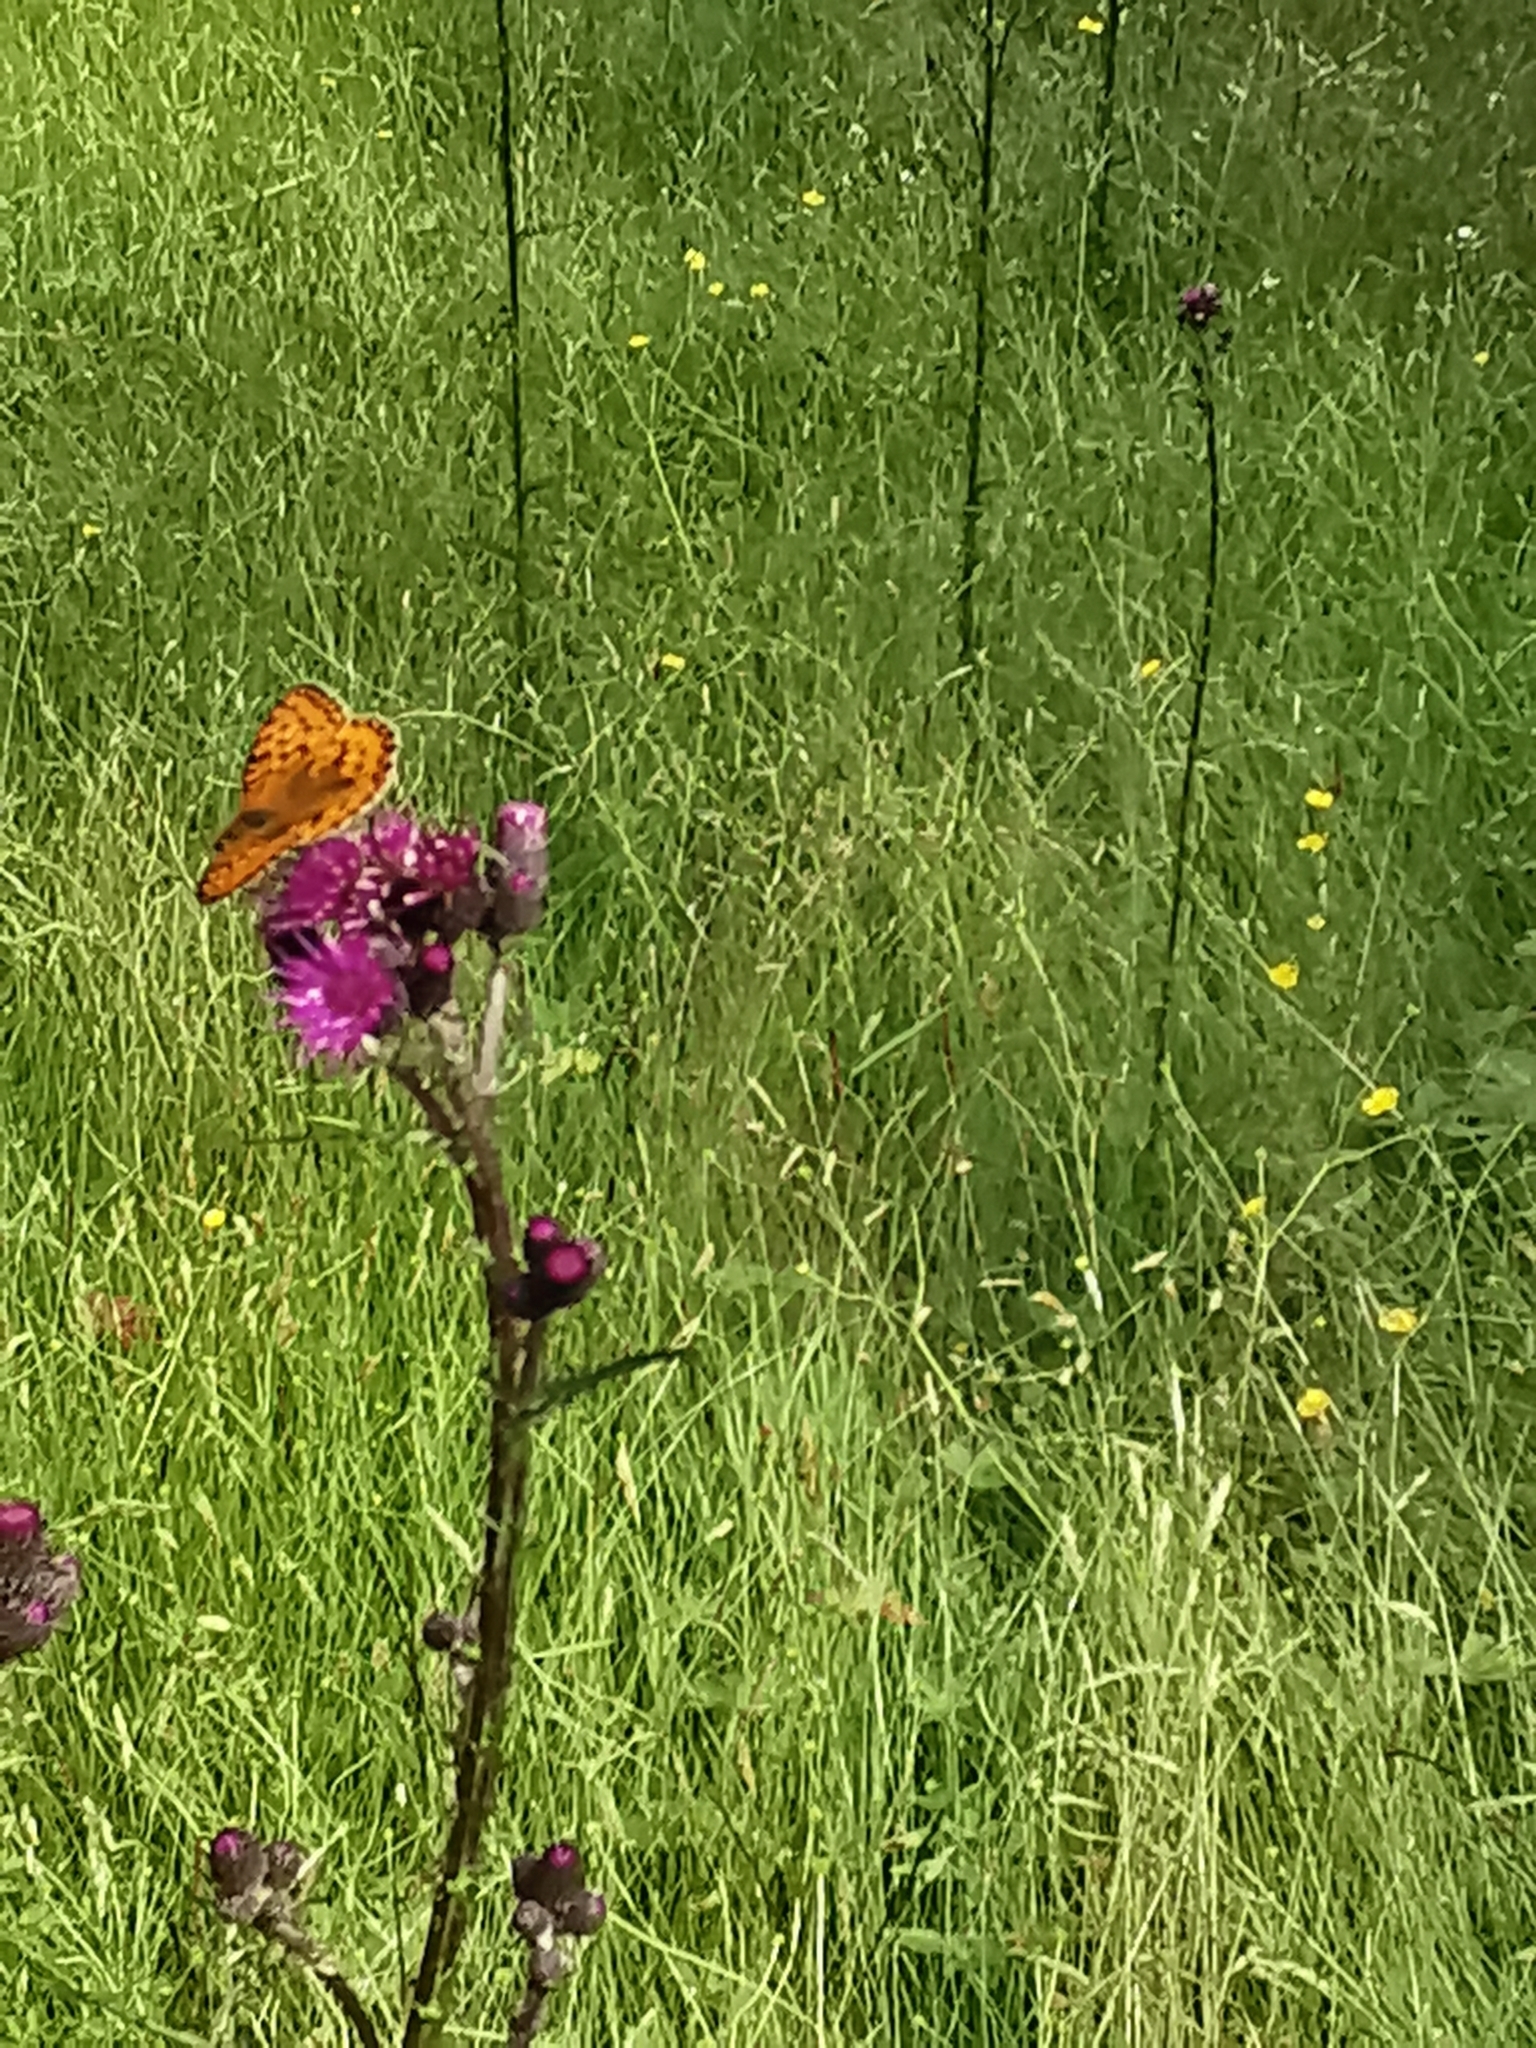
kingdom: Animalia
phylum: Arthropoda
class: Insecta
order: Lepidoptera
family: Nymphalidae
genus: Speyeria
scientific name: Speyeria aglaja
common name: Dark green fritillary
